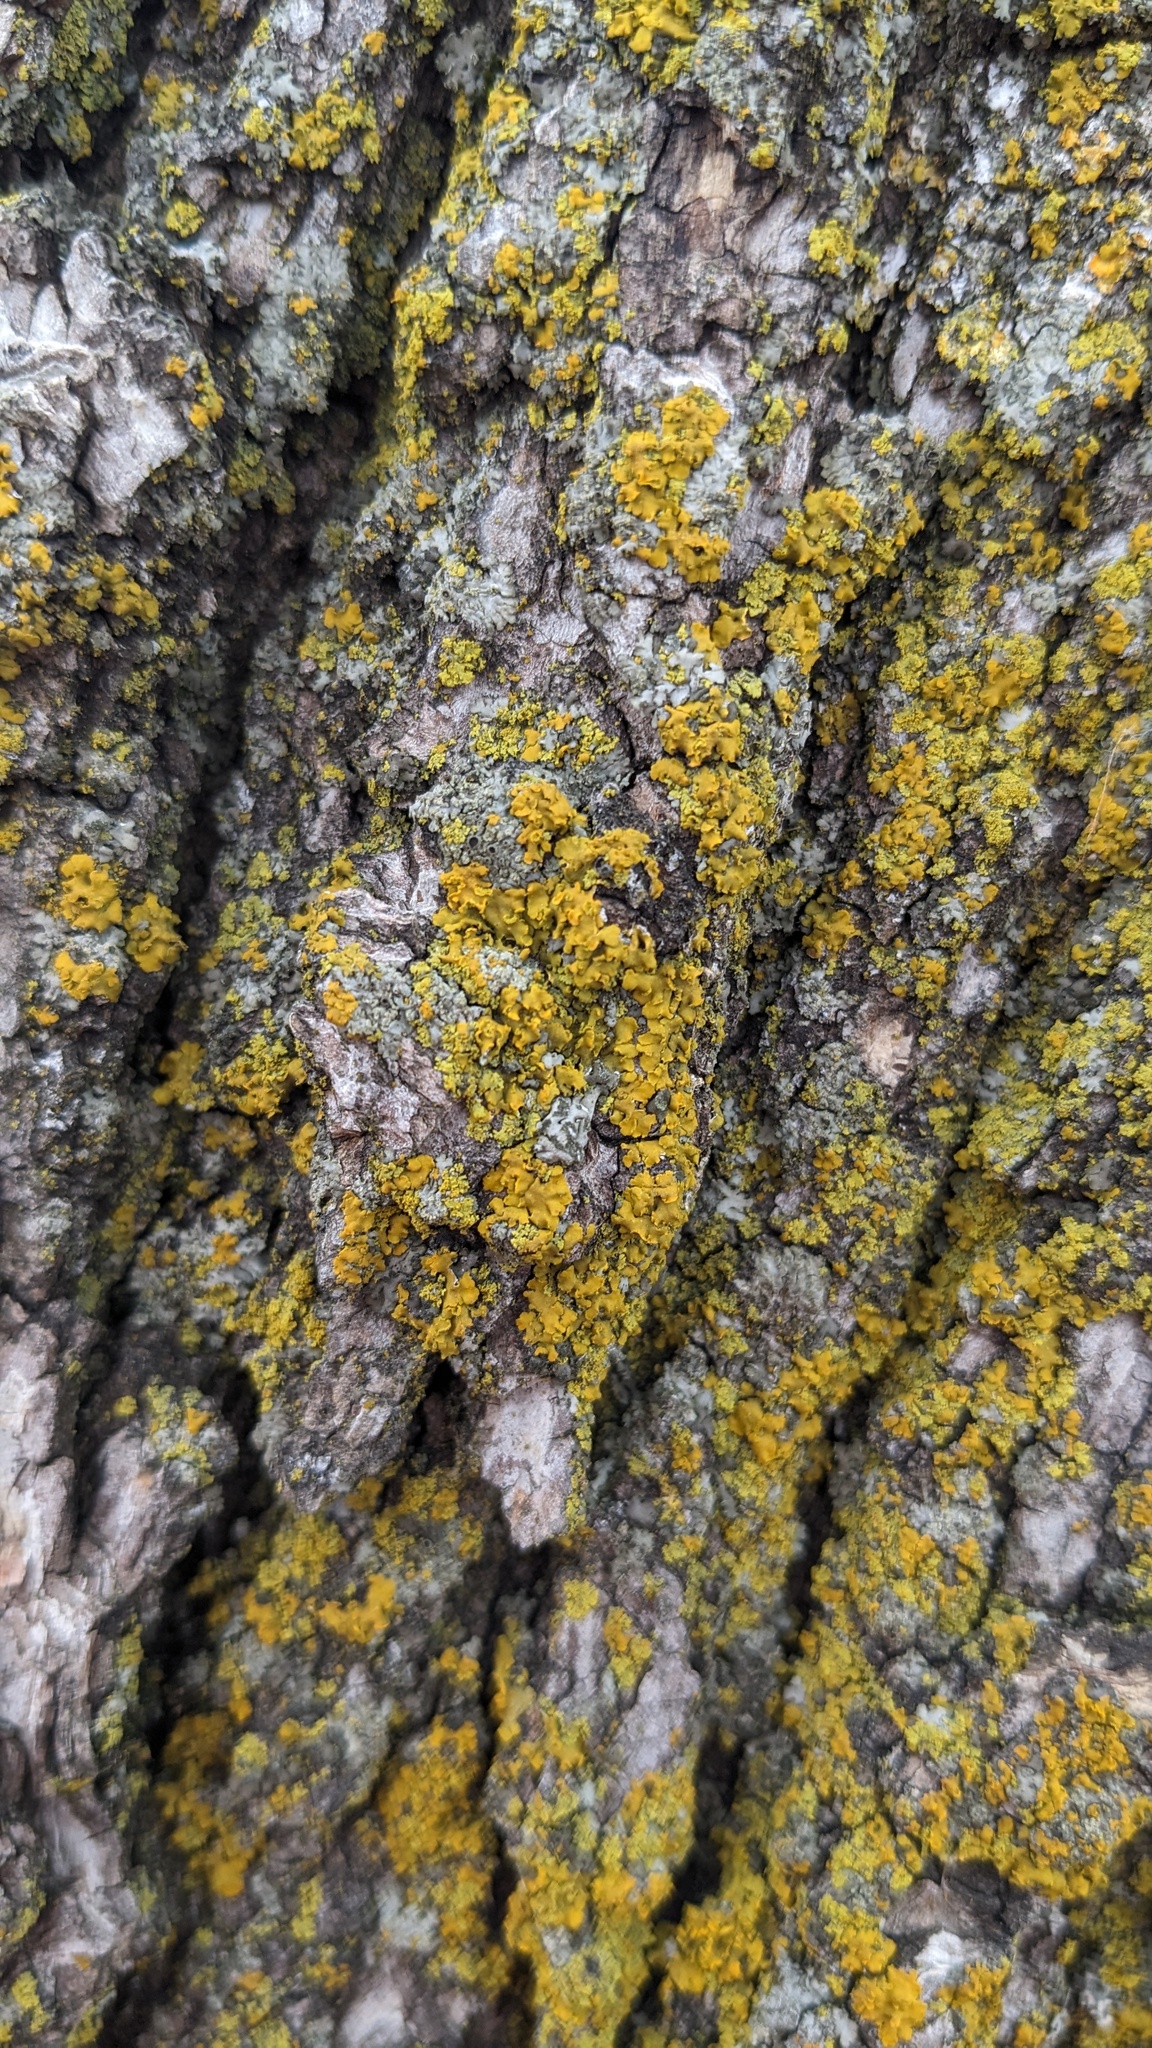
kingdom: Fungi
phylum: Ascomycota
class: Lecanoromycetes
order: Teloschistales
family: Teloschistaceae
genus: Oxneria
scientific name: Oxneria fallax
